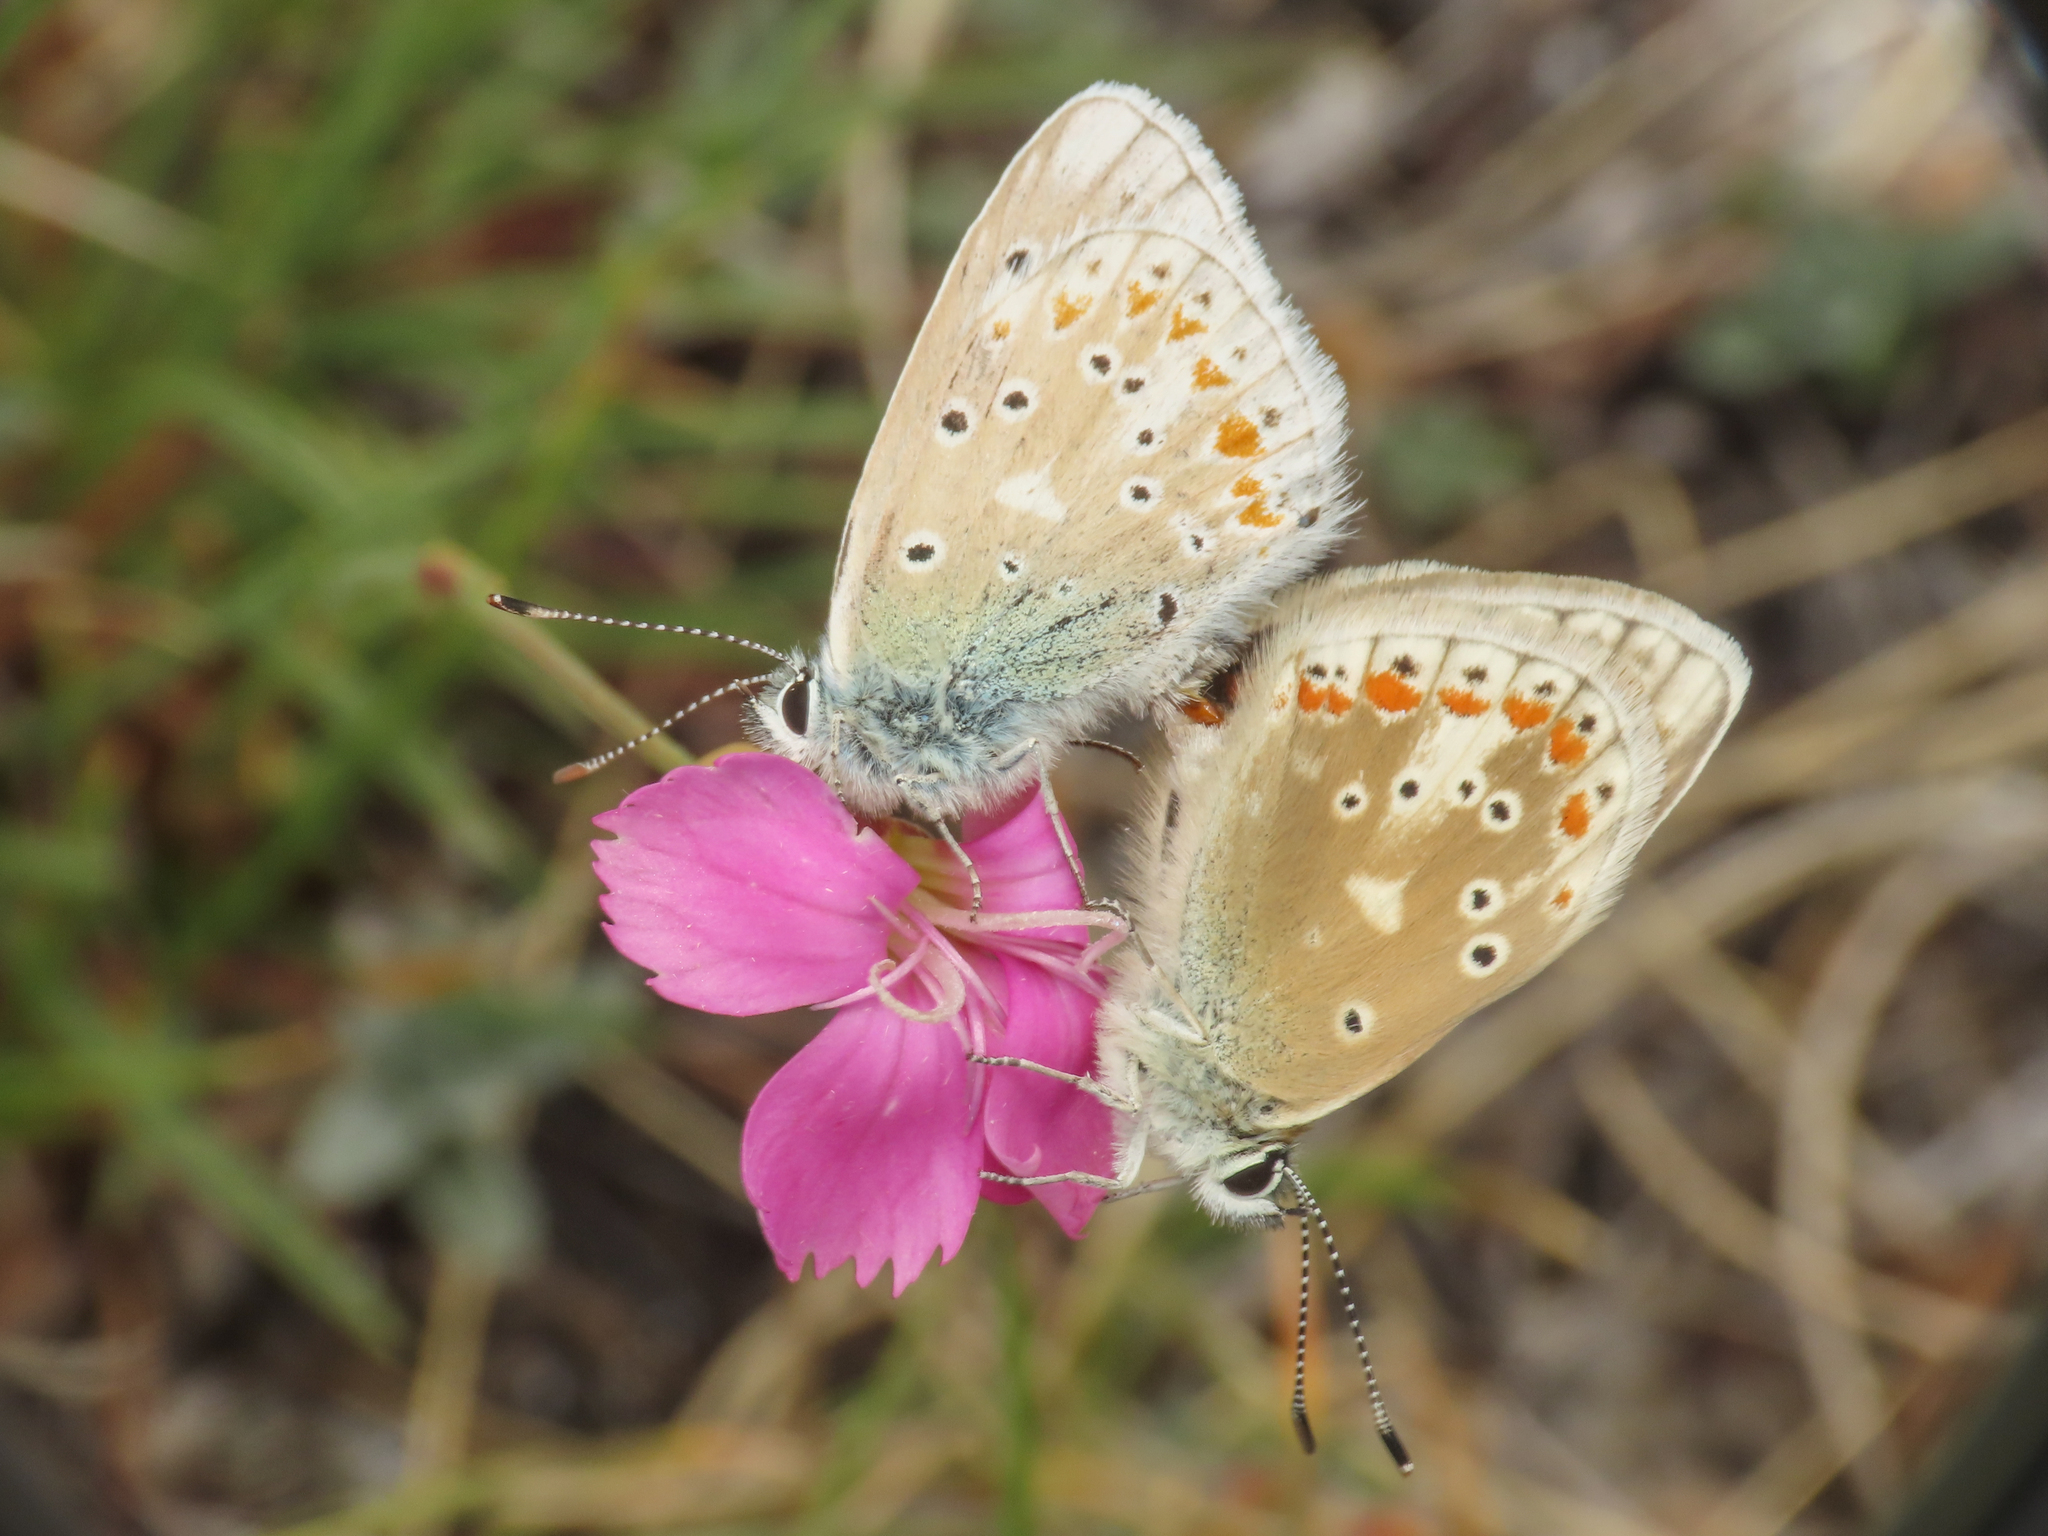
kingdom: Animalia
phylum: Arthropoda
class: Insecta
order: Lepidoptera
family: Lycaenidae
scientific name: Lycaenidae
